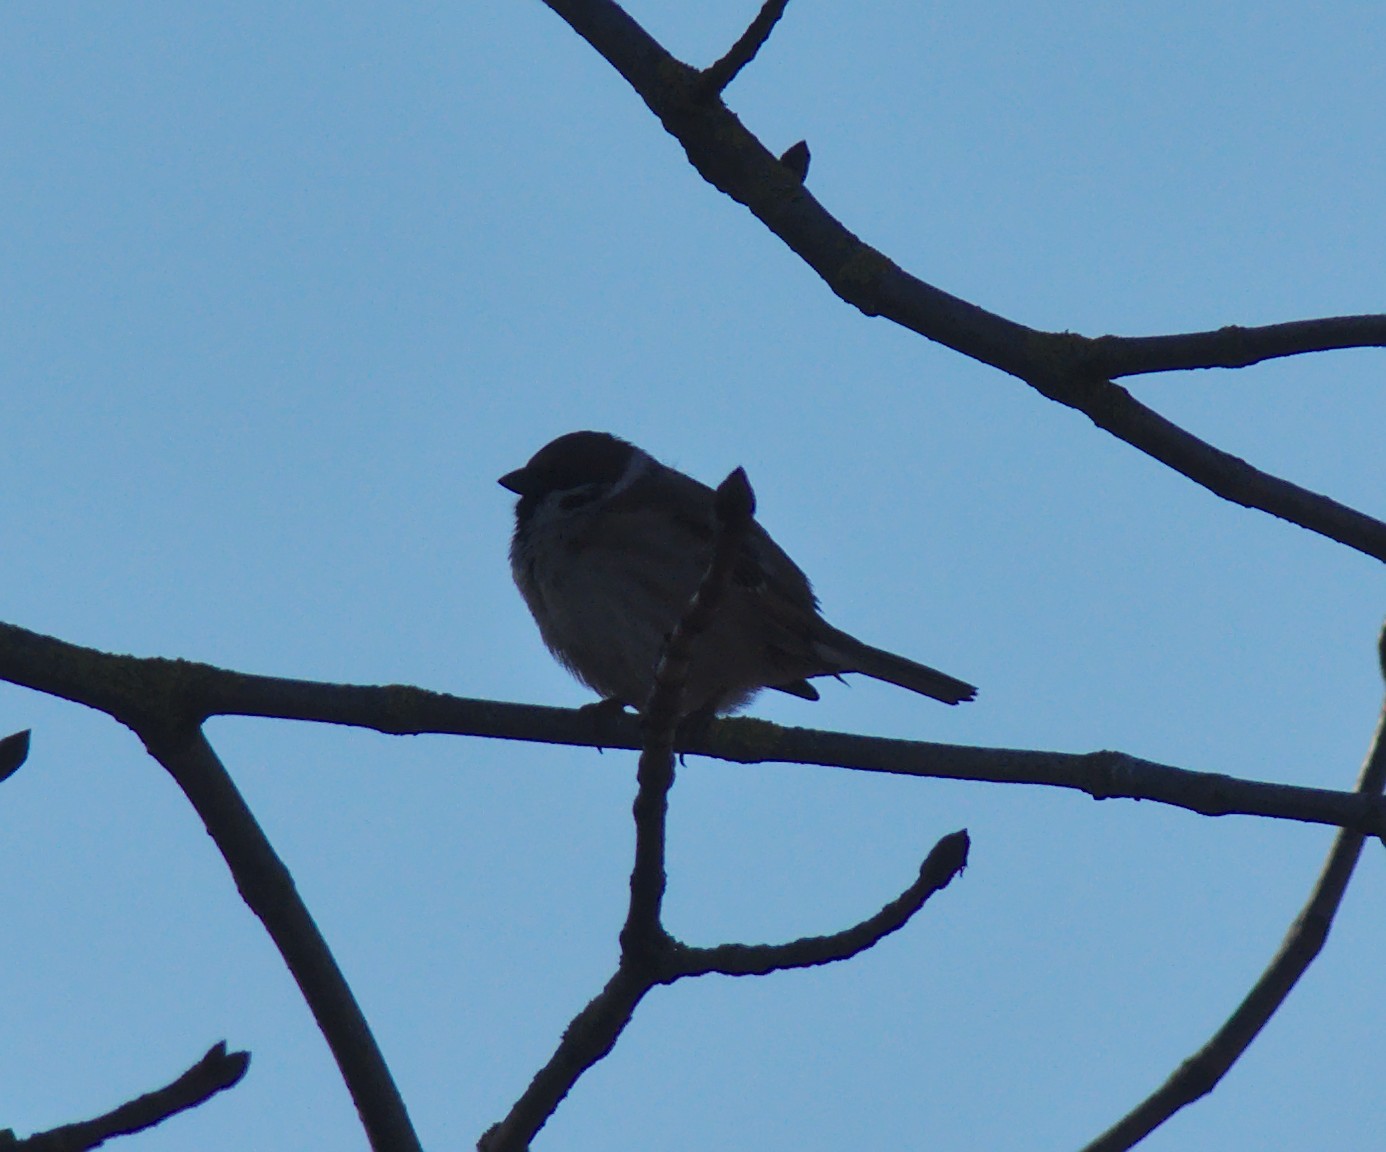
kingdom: Animalia
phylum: Chordata
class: Aves
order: Passeriformes
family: Passeridae
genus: Passer
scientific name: Passer montanus
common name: Eurasian tree sparrow
